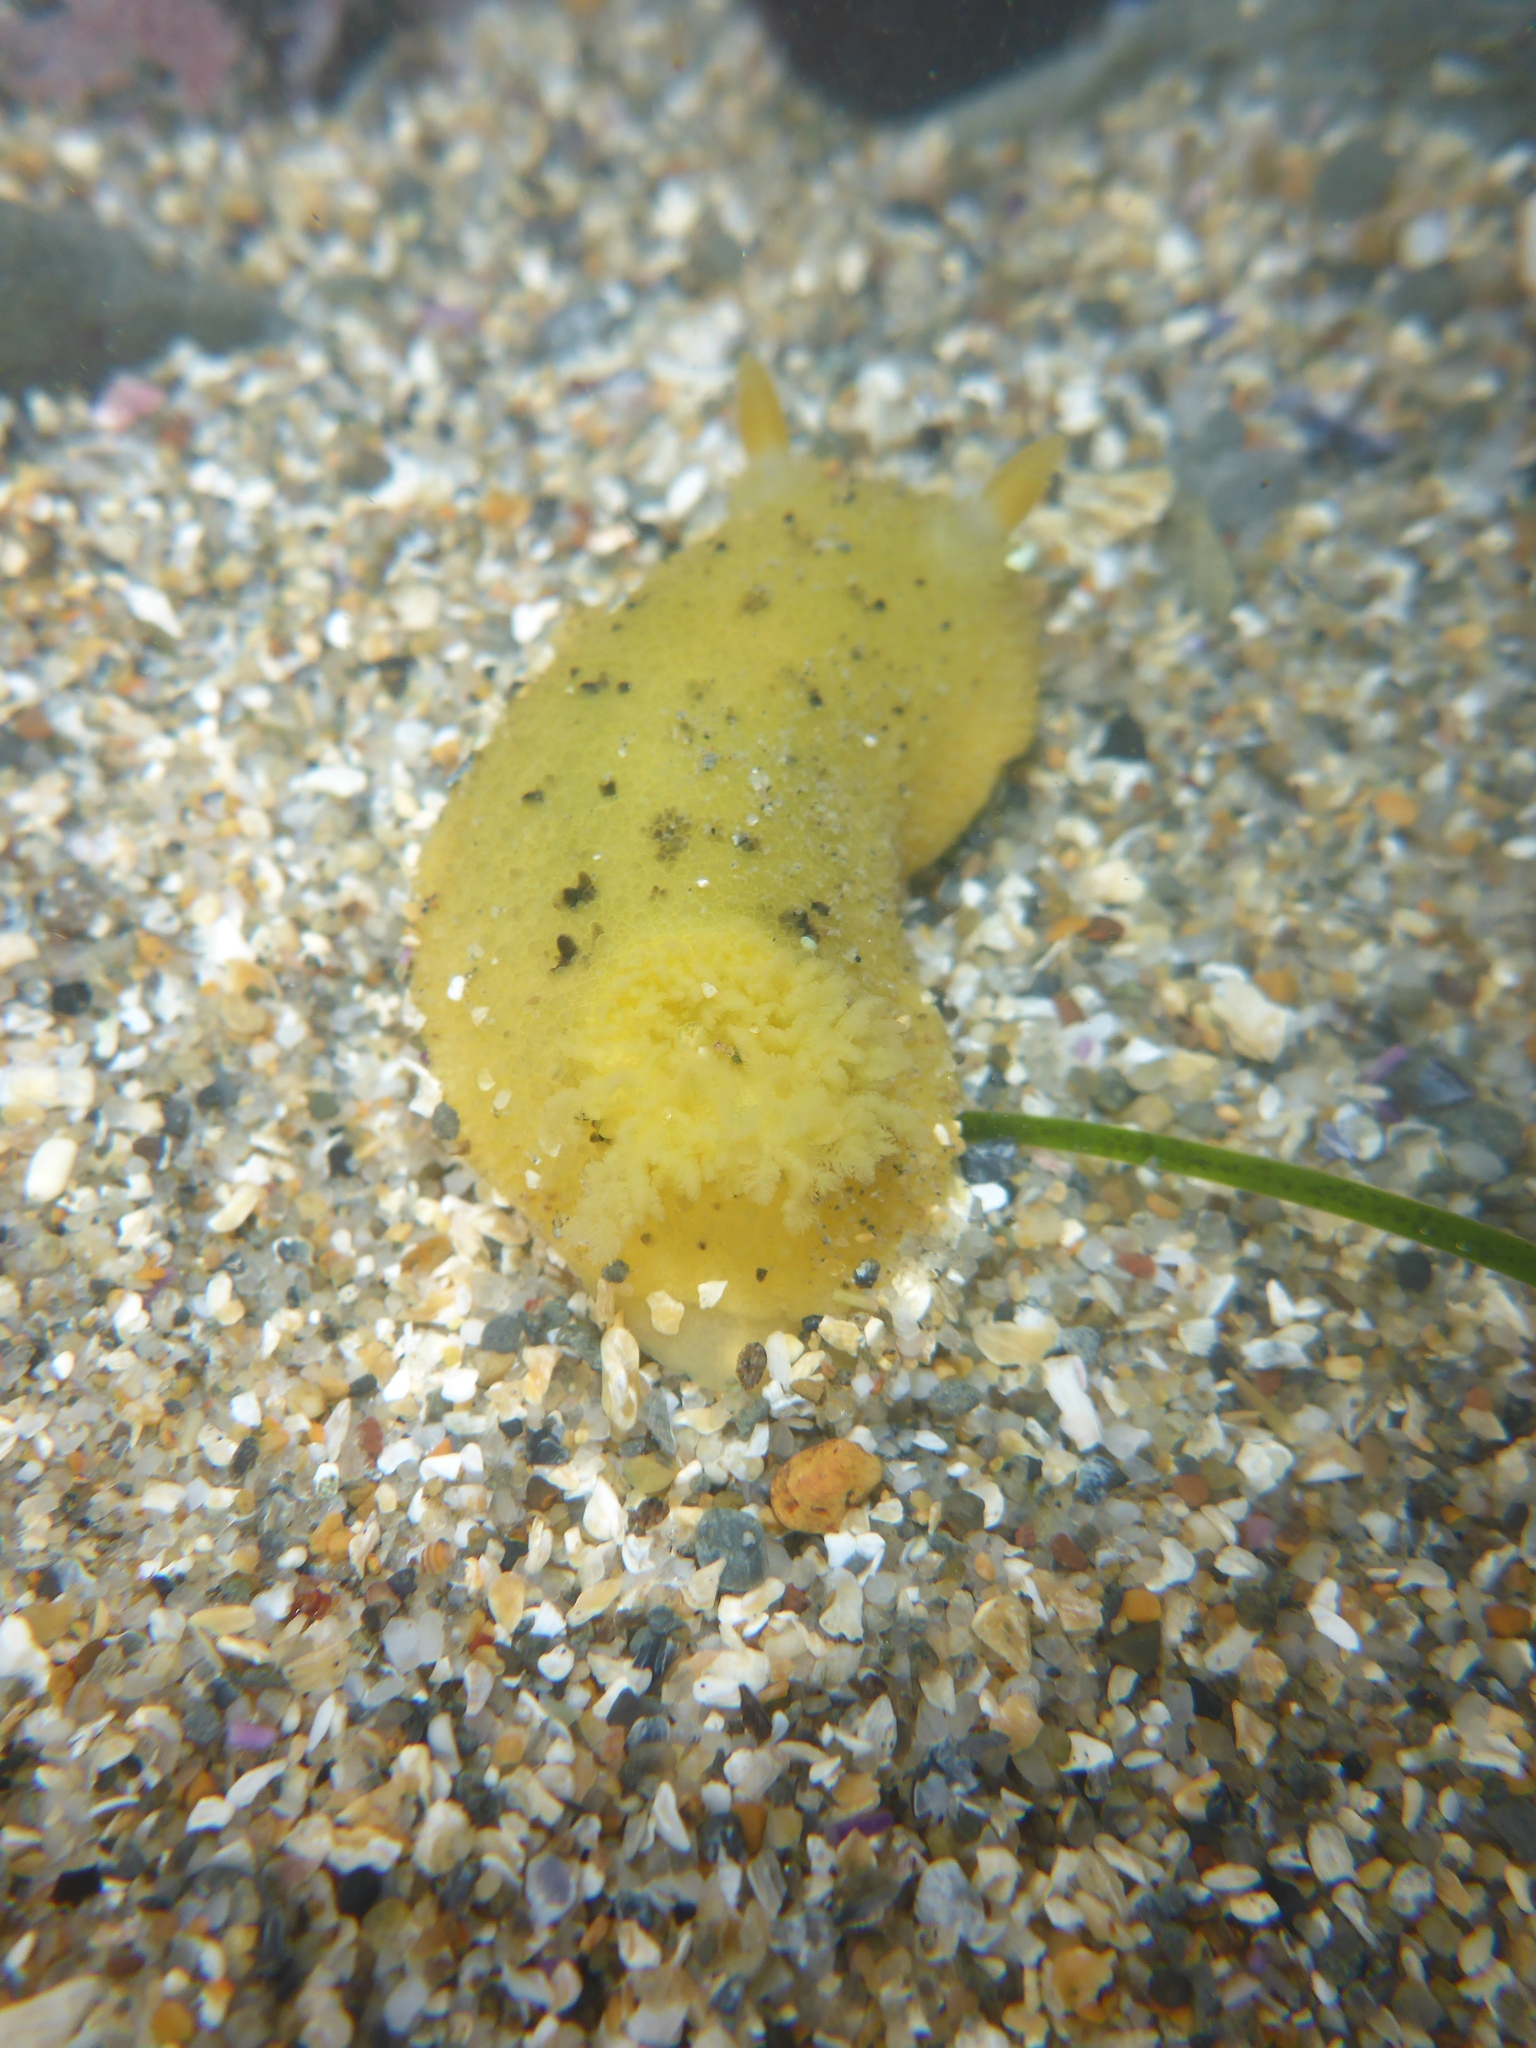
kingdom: Animalia
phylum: Mollusca
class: Gastropoda
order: Nudibranchia
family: Dorididae
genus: Doris
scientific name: Doris montereyensis
